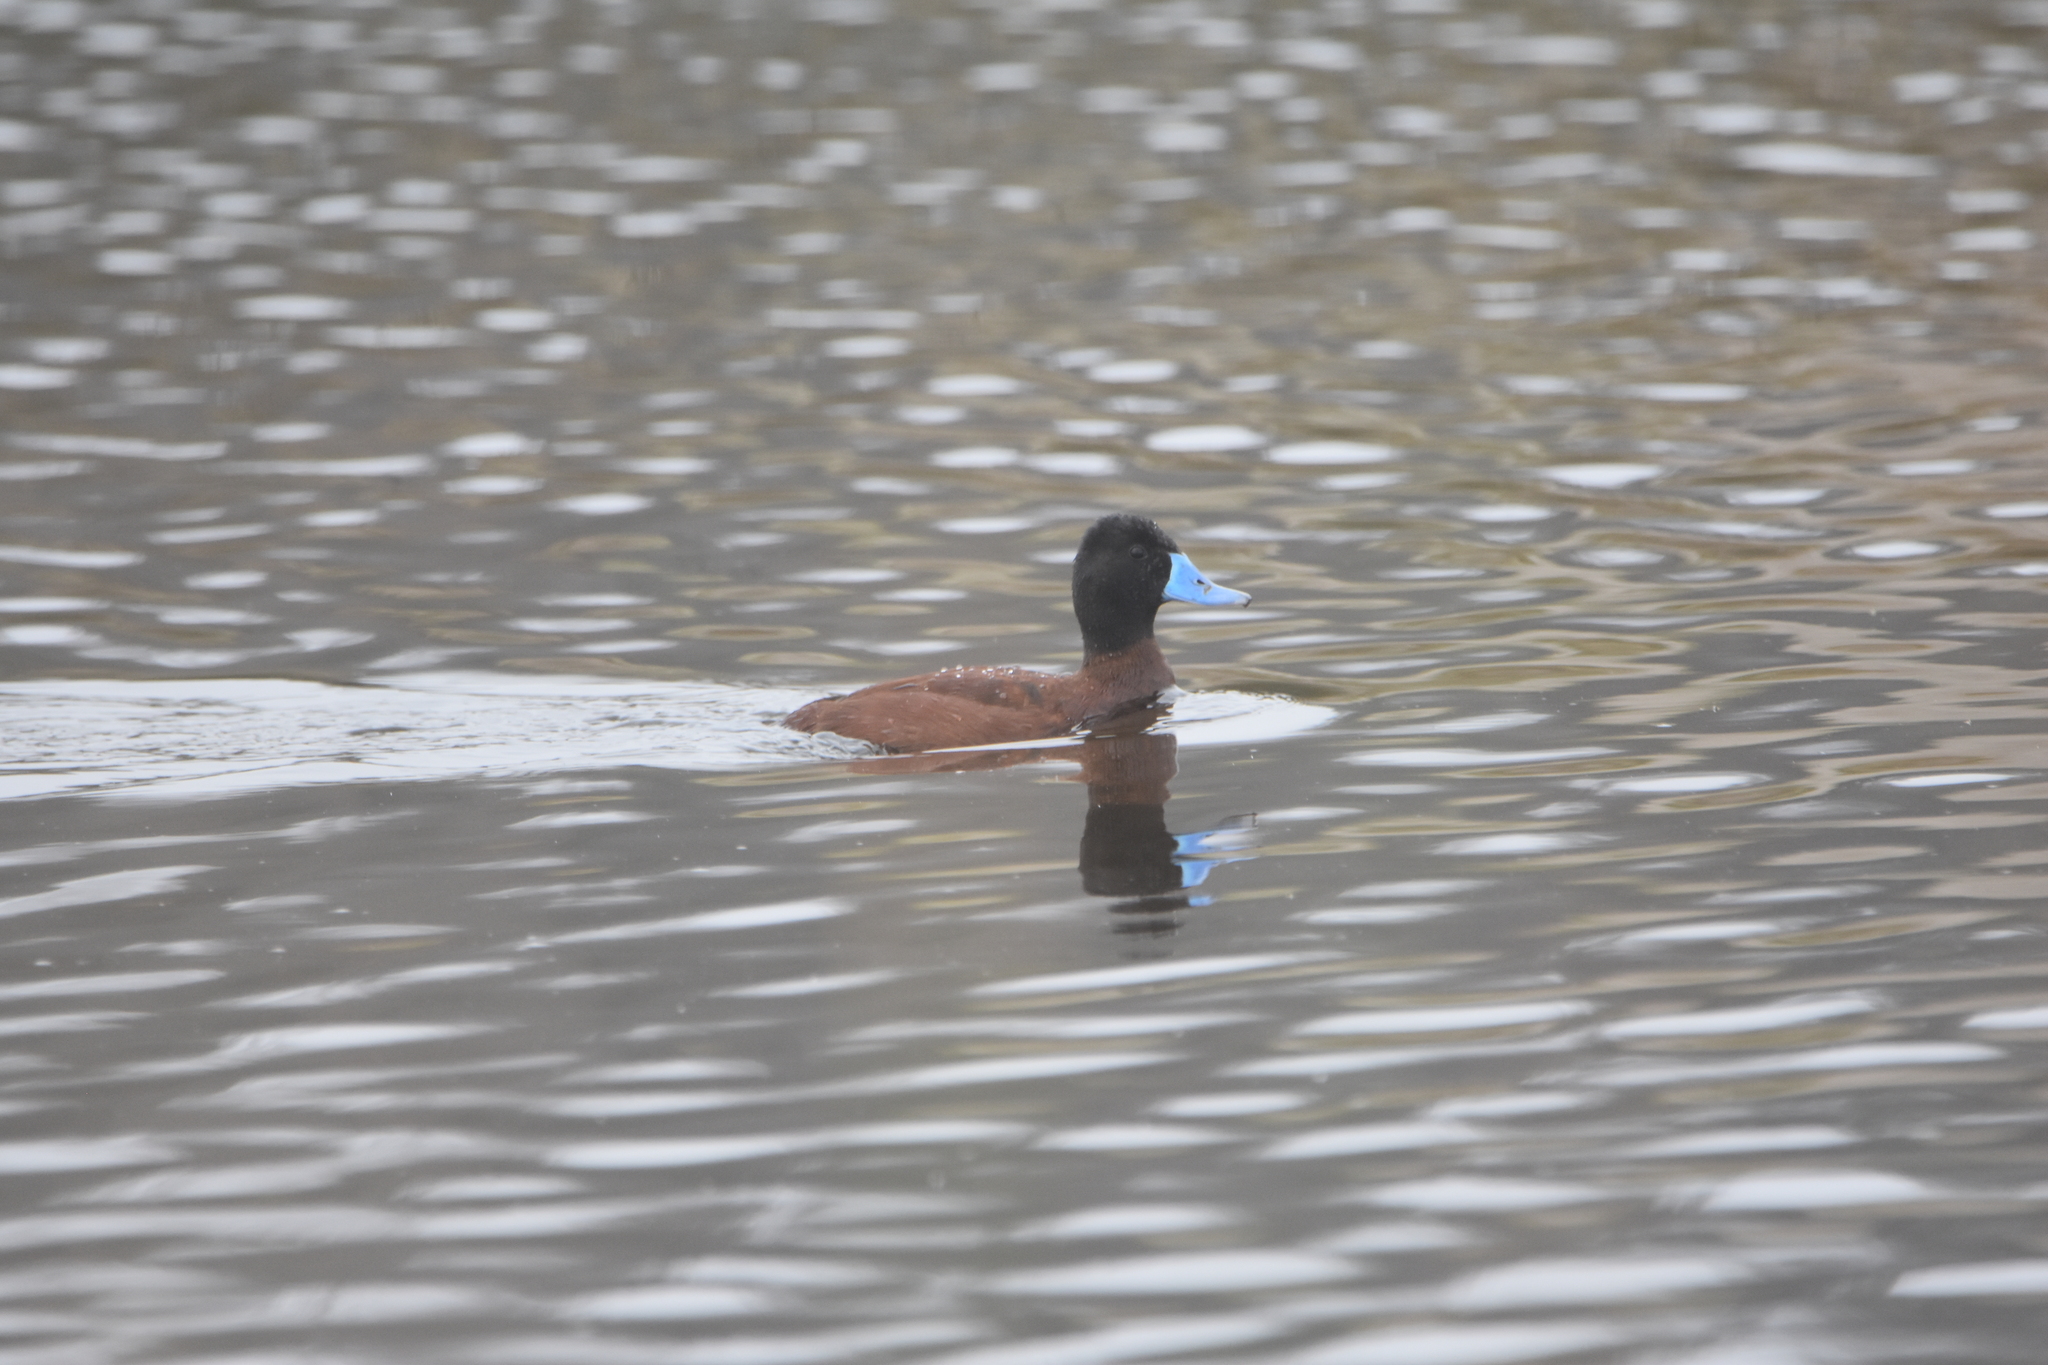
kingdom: Animalia
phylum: Chordata
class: Aves
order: Anseriformes
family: Anatidae
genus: Oxyura
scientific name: Oxyura vittata
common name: Lake duck
